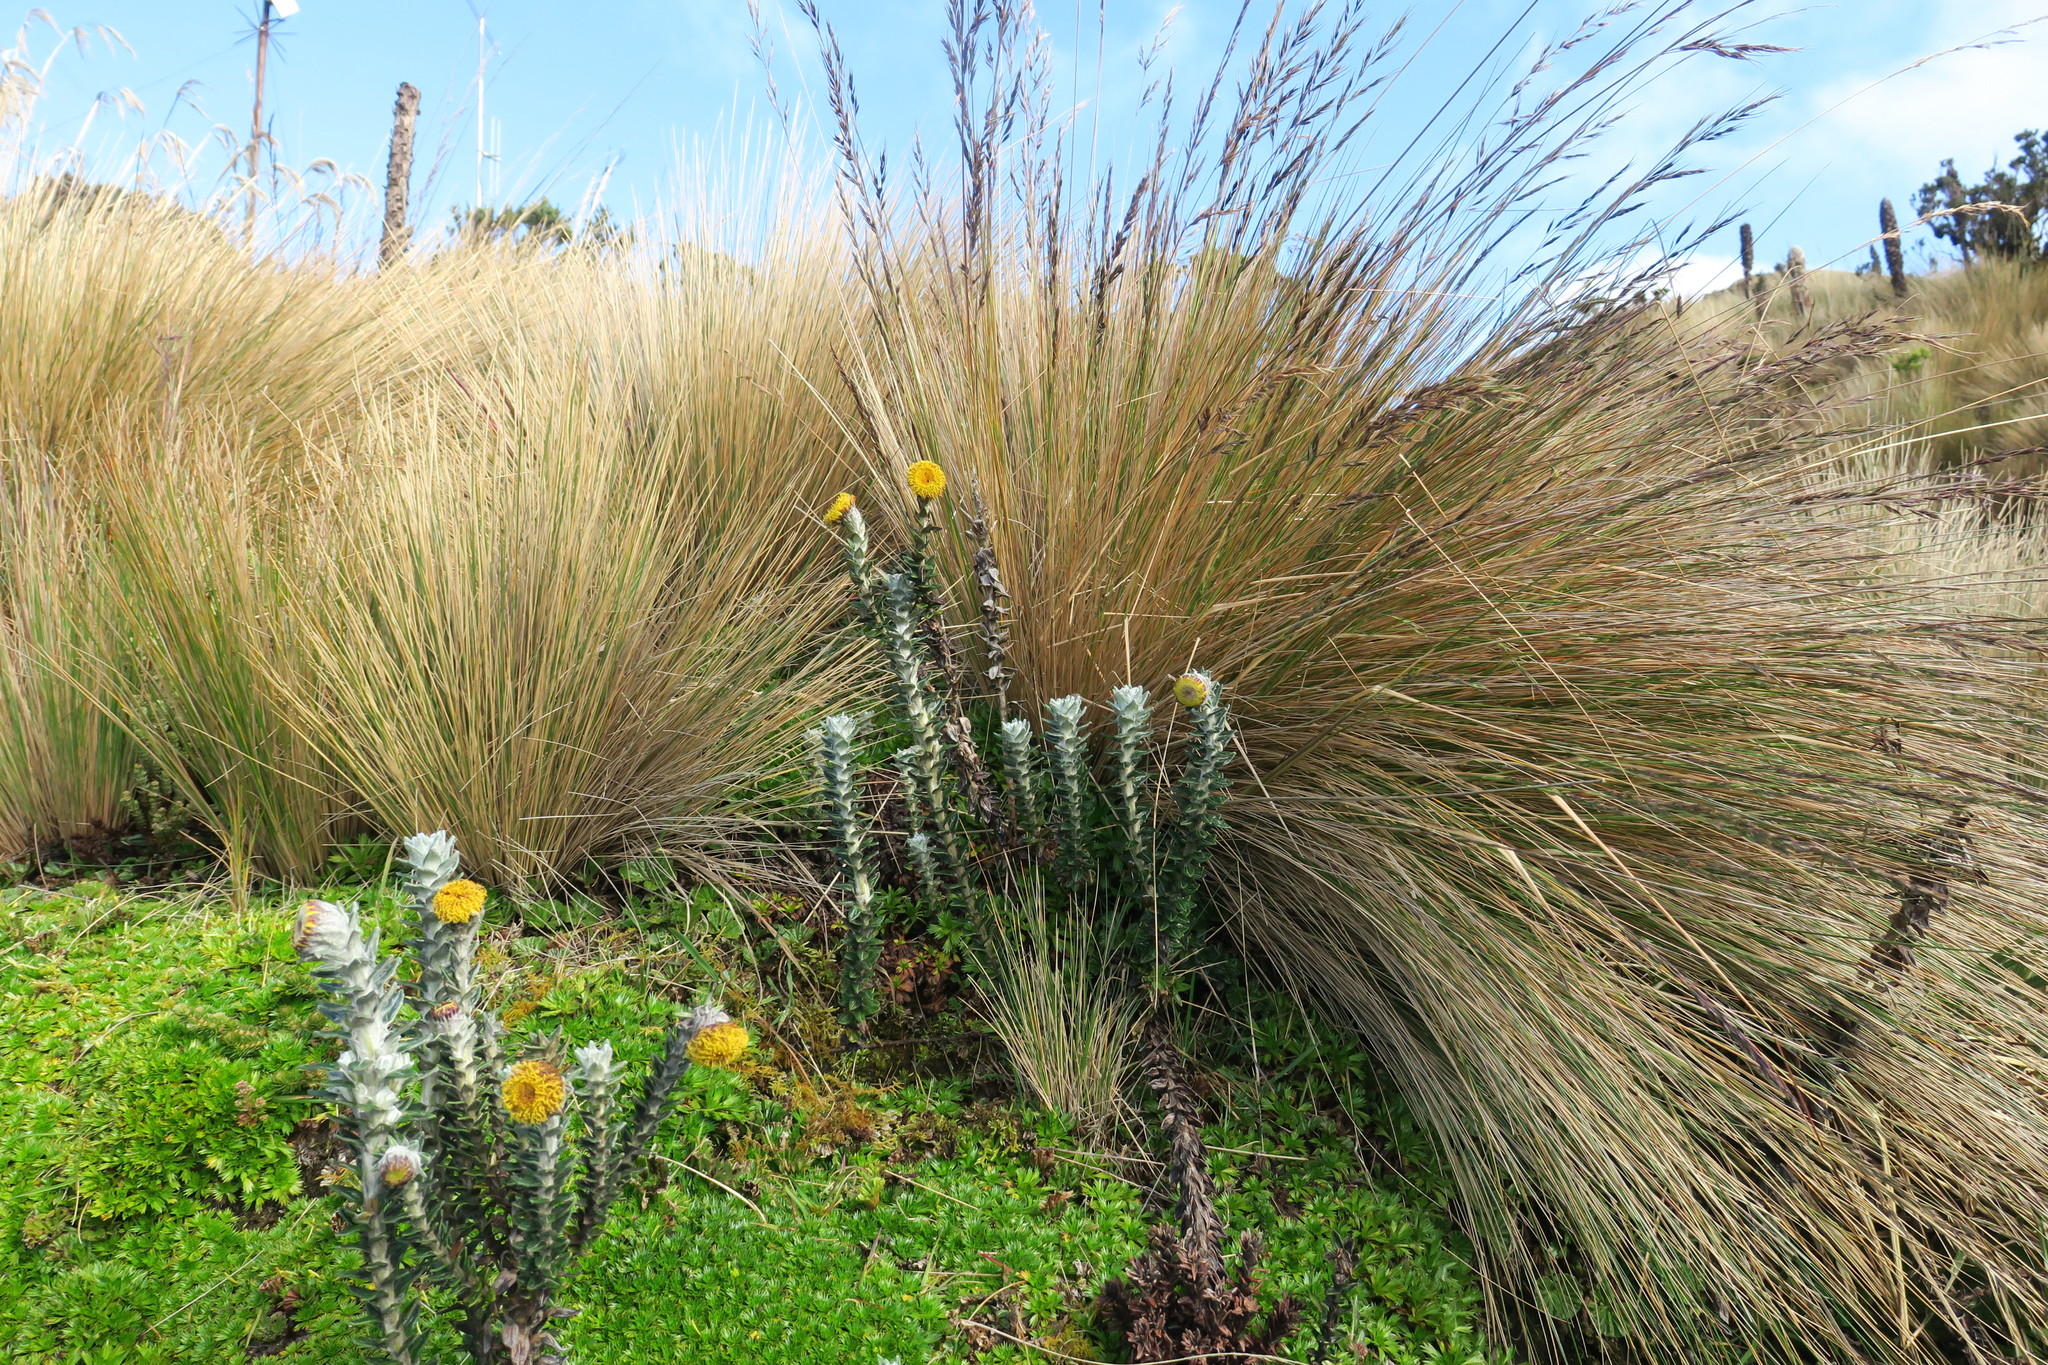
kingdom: Plantae
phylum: Tracheophyta
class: Magnoliopsida
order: Asterales
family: Asteraceae
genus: Lasiocephalus
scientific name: Lasiocephalus ovatus
